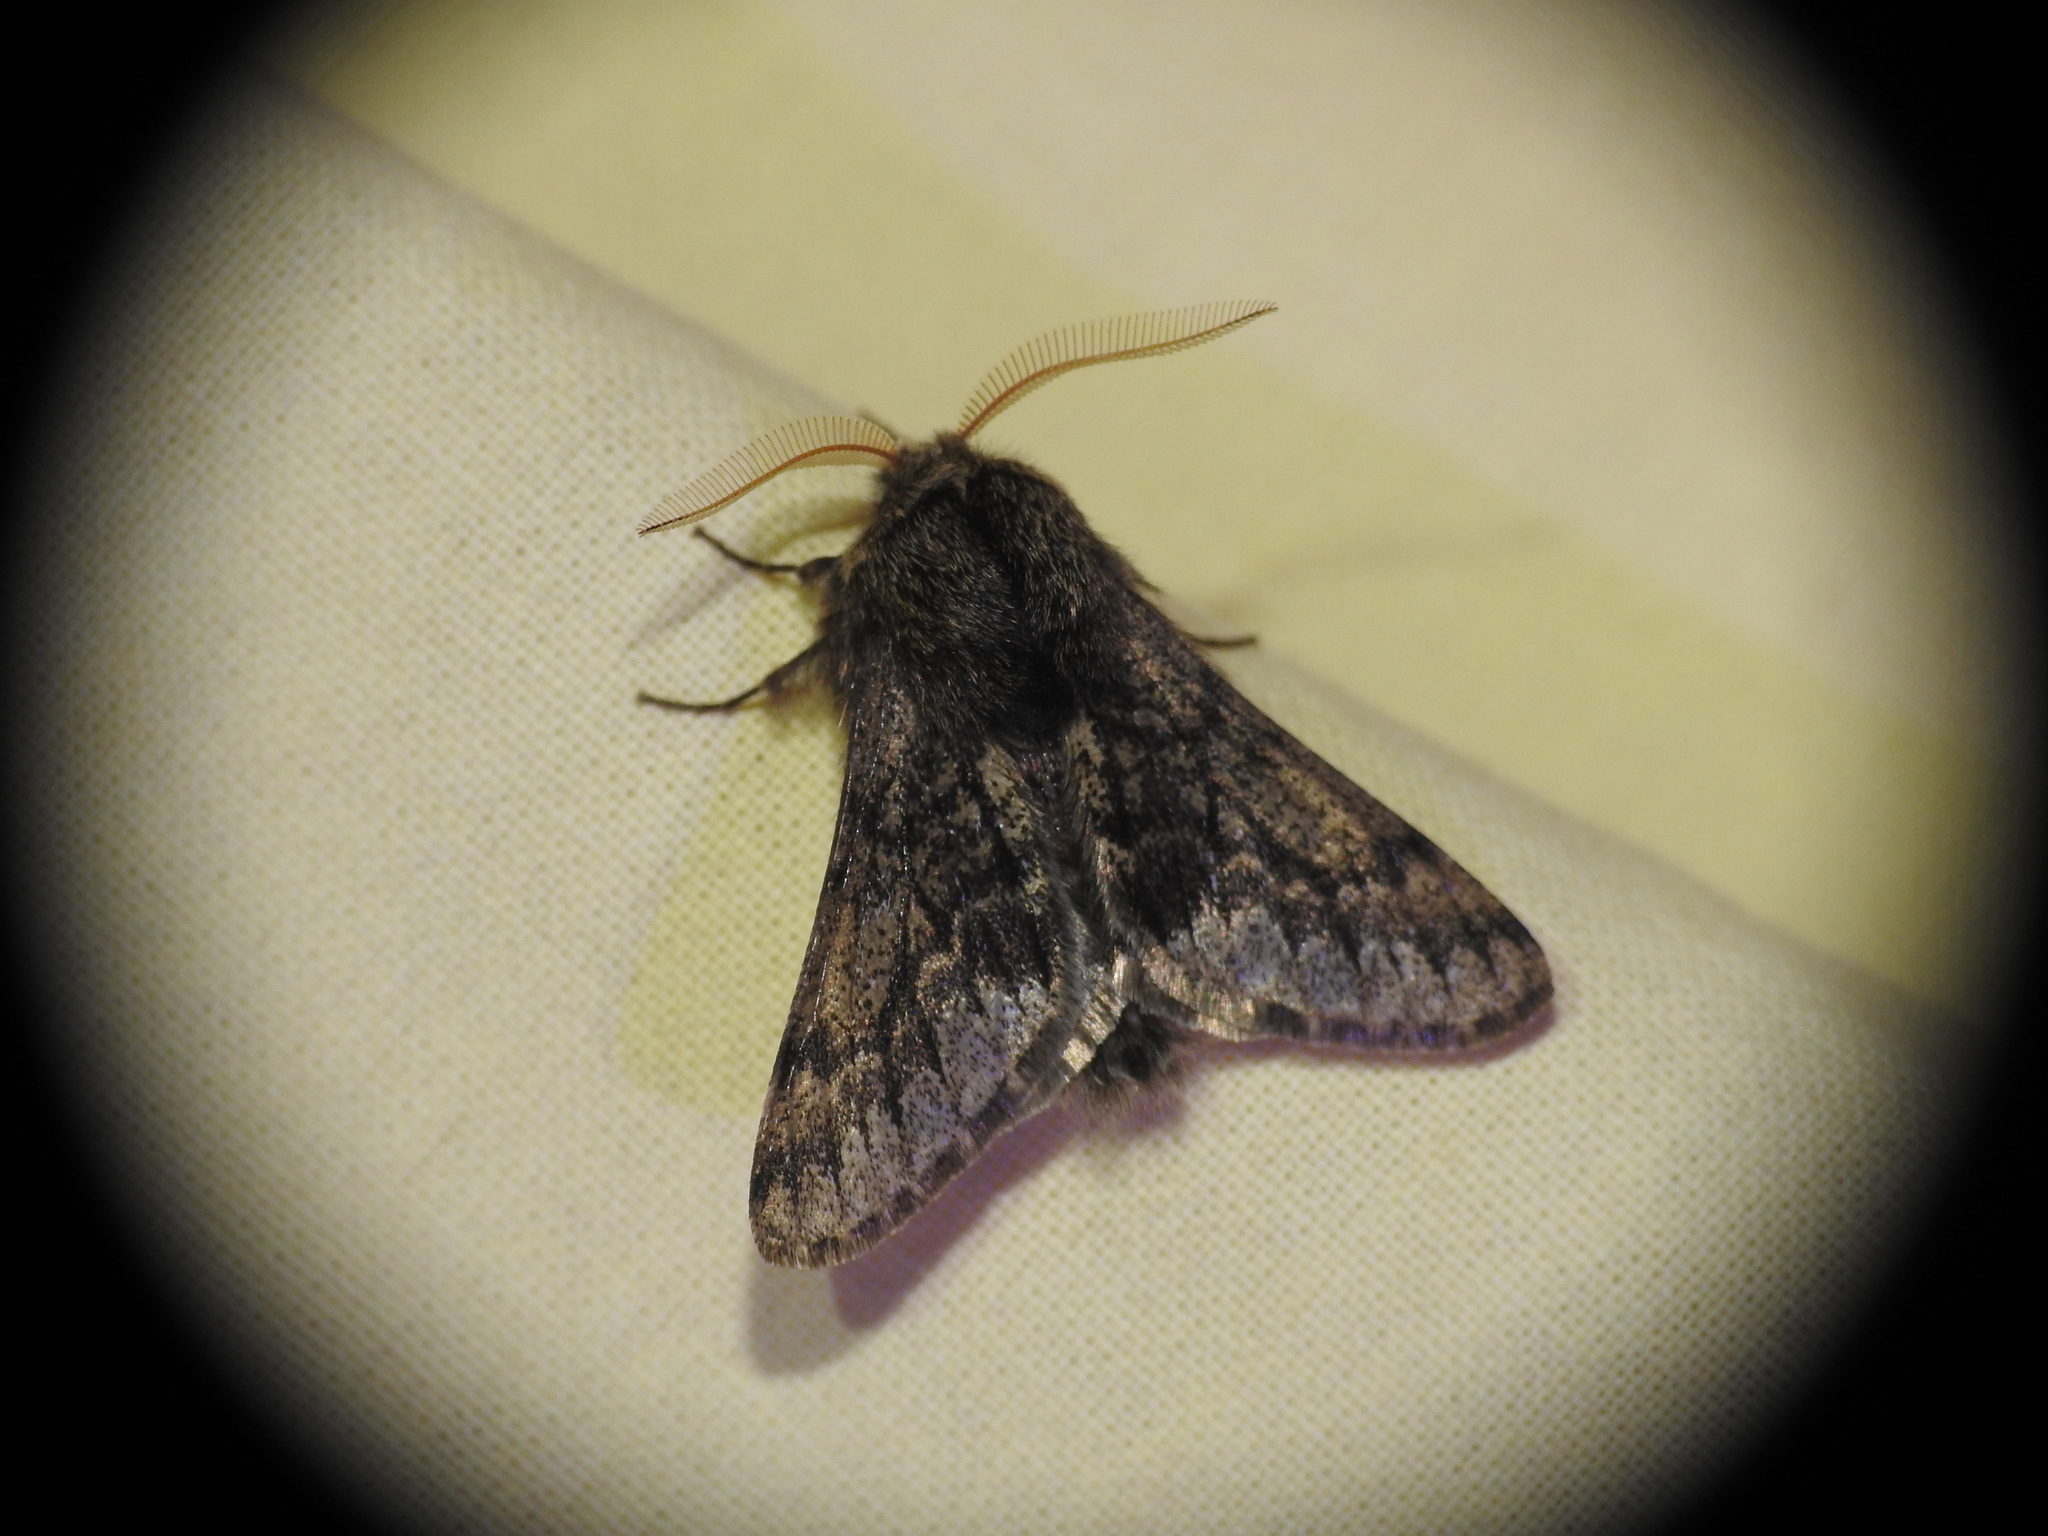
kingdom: Animalia
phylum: Arthropoda
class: Insecta
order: Lepidoptera
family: Geometridae
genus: Apocheima
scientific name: Apocheima hispidaria
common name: Small brindled beauty
